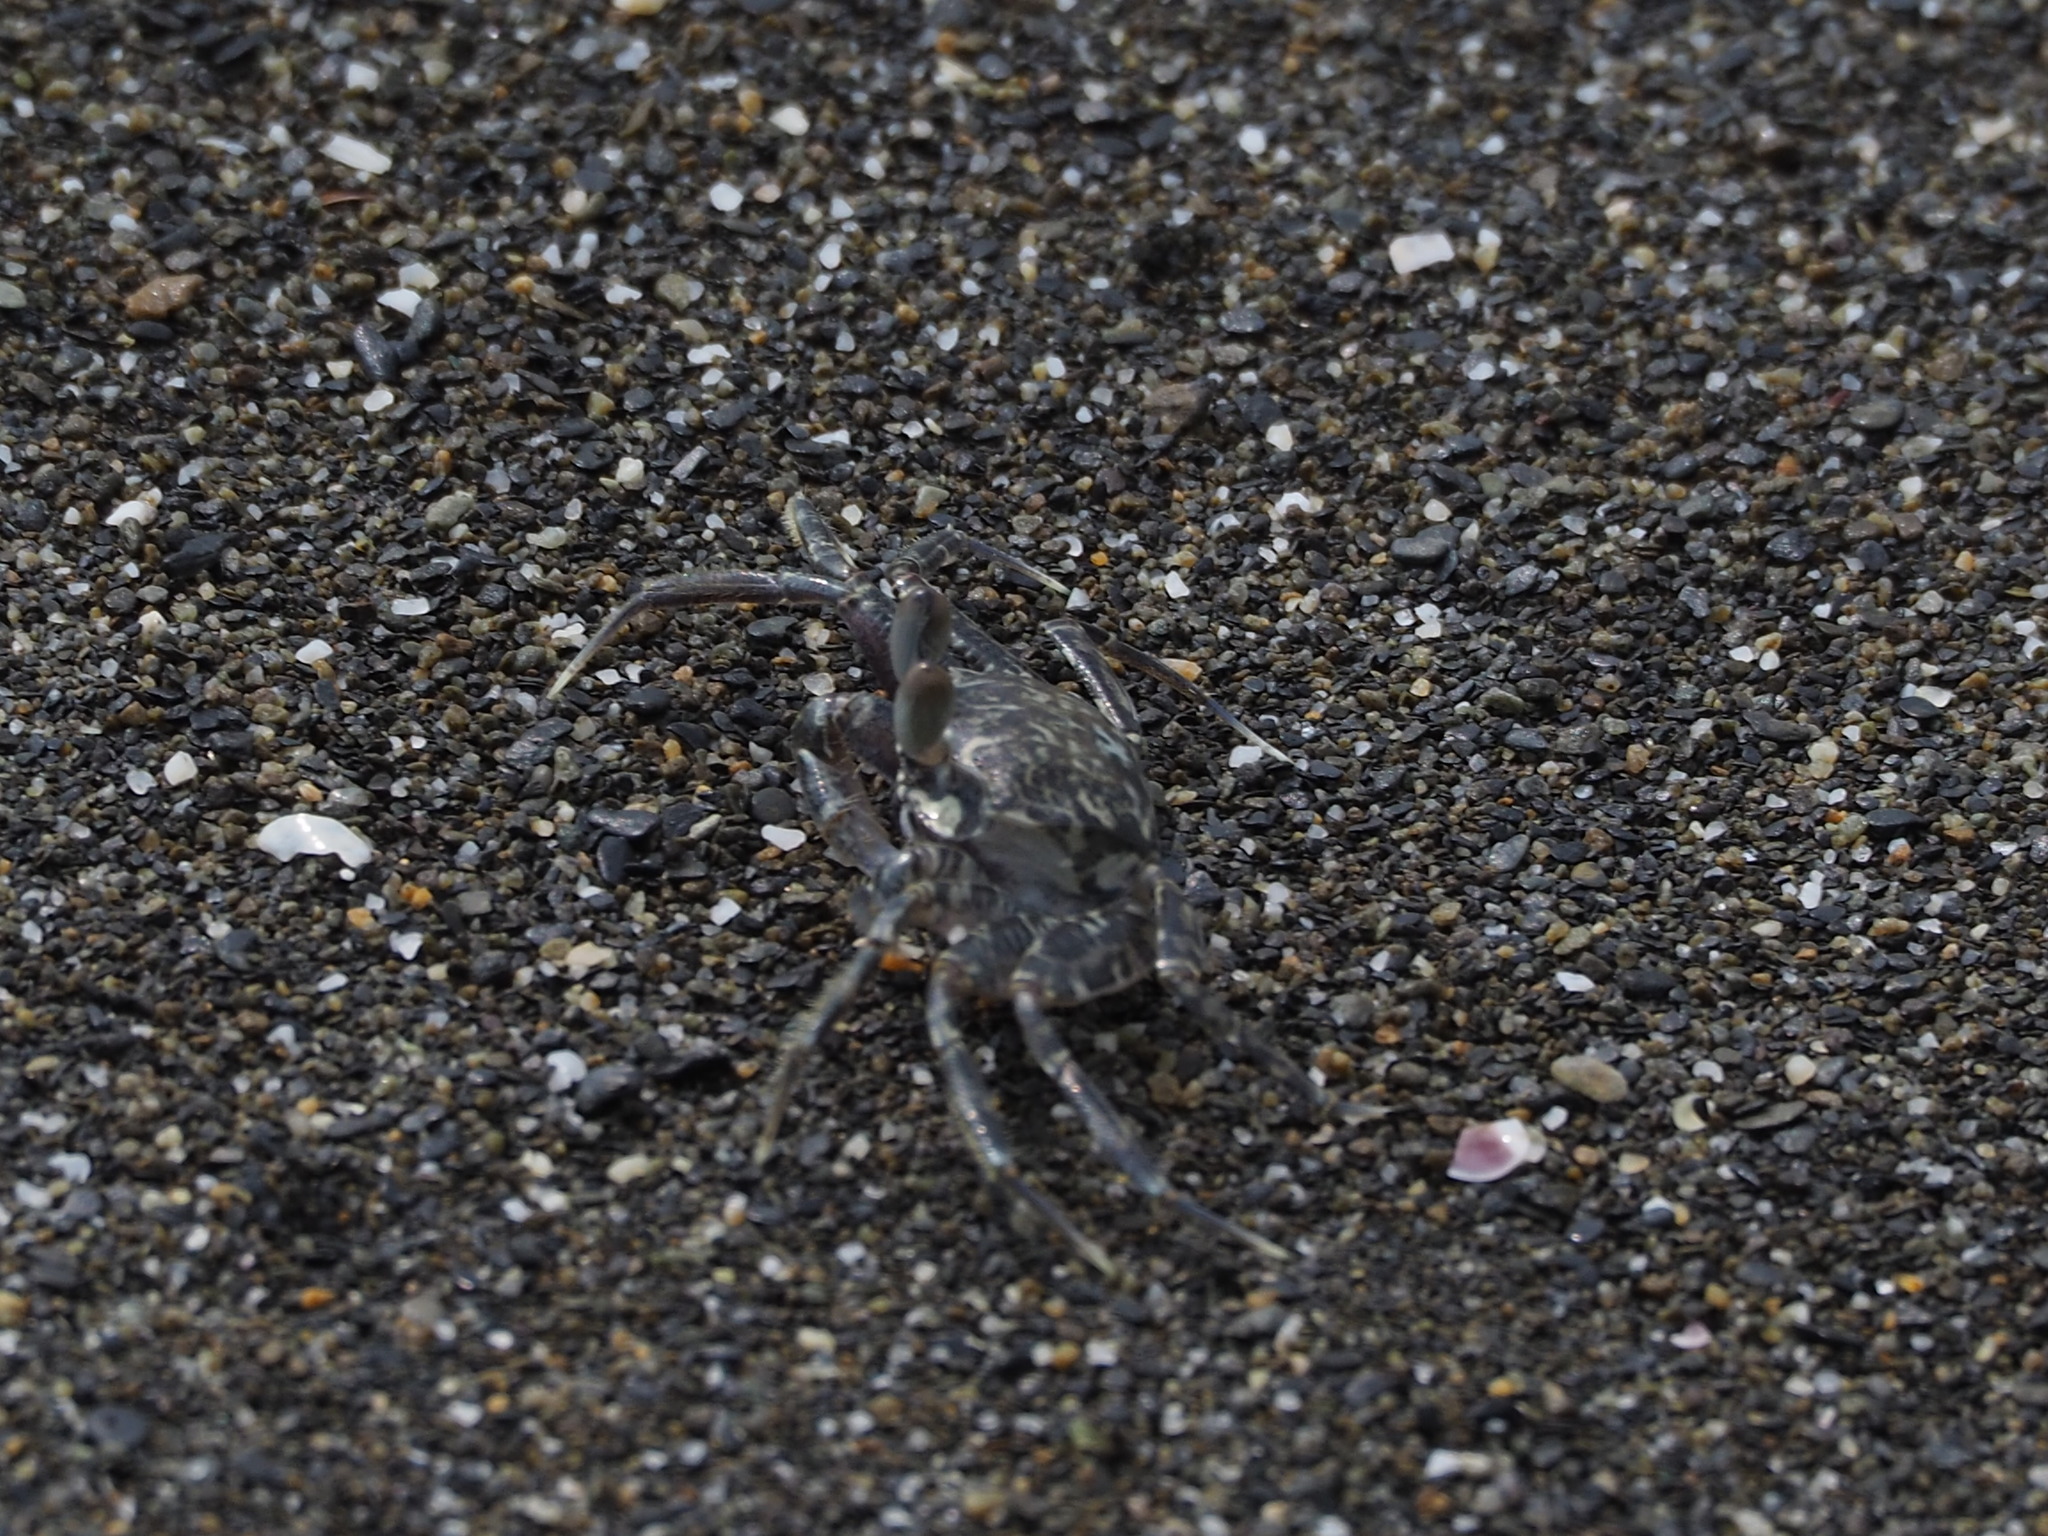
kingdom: Animalia
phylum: Arthropoda
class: Malacostraca
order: Decapoda
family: Ocypodidae
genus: Ocypode
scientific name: Ocypode ceratophthalmus
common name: Indo-pacific ghost crab
